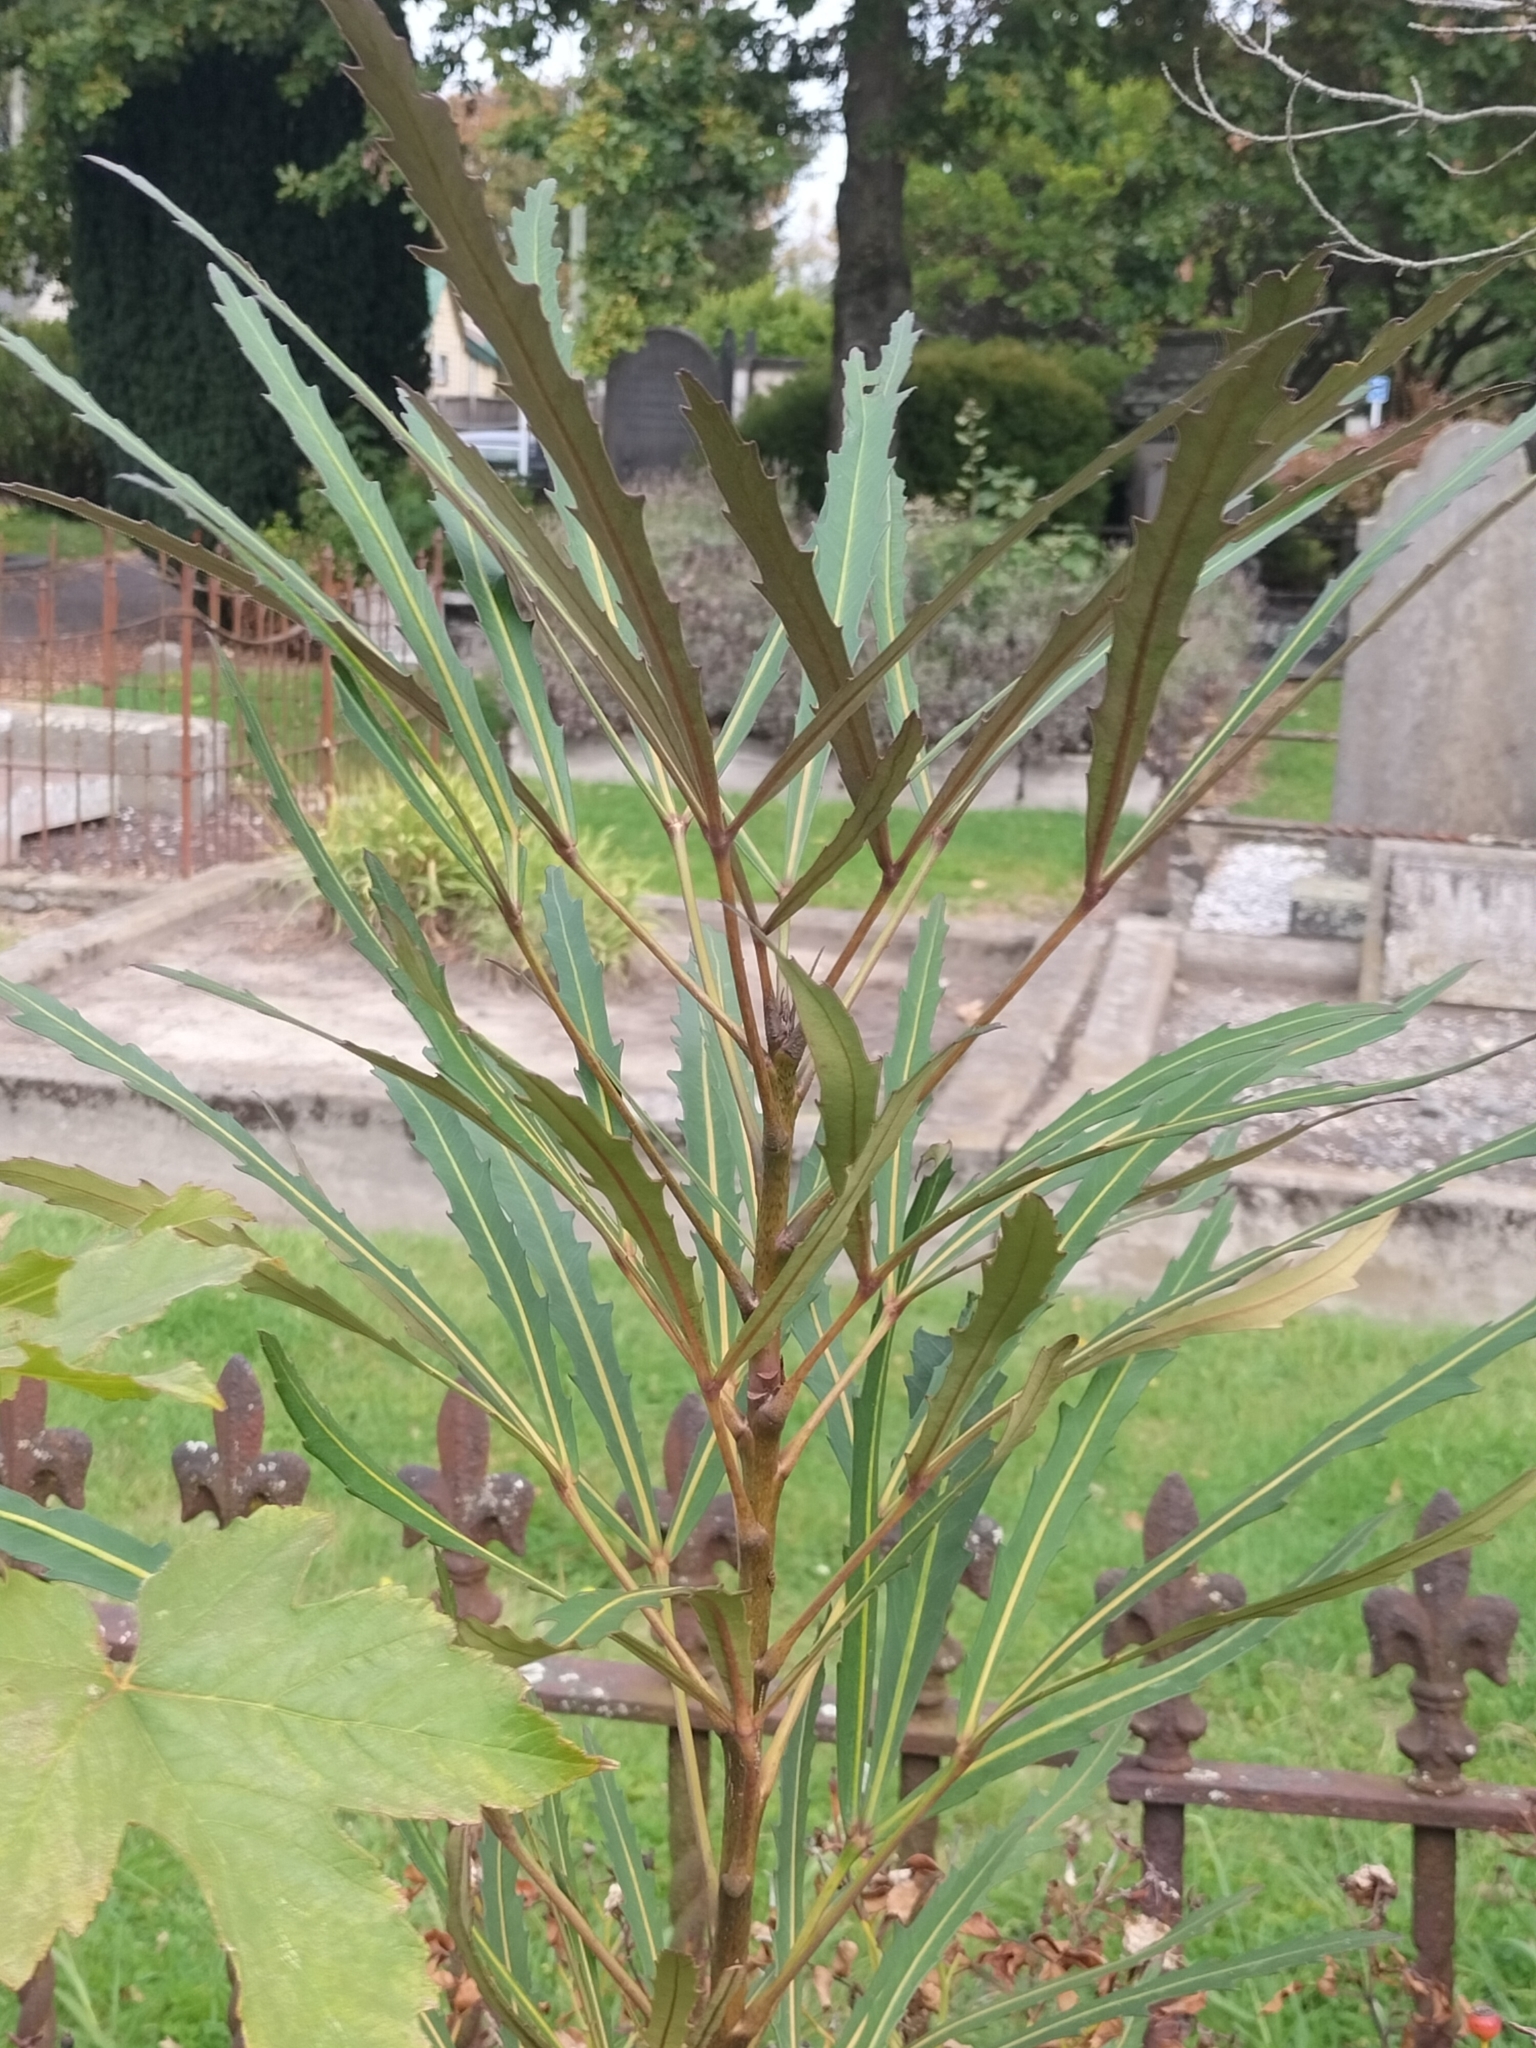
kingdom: Plantae
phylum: Tracheophyta
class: Magnoliopsida
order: Apiales
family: Araliaceae
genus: Pseudopanax
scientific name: Pseudopanax
